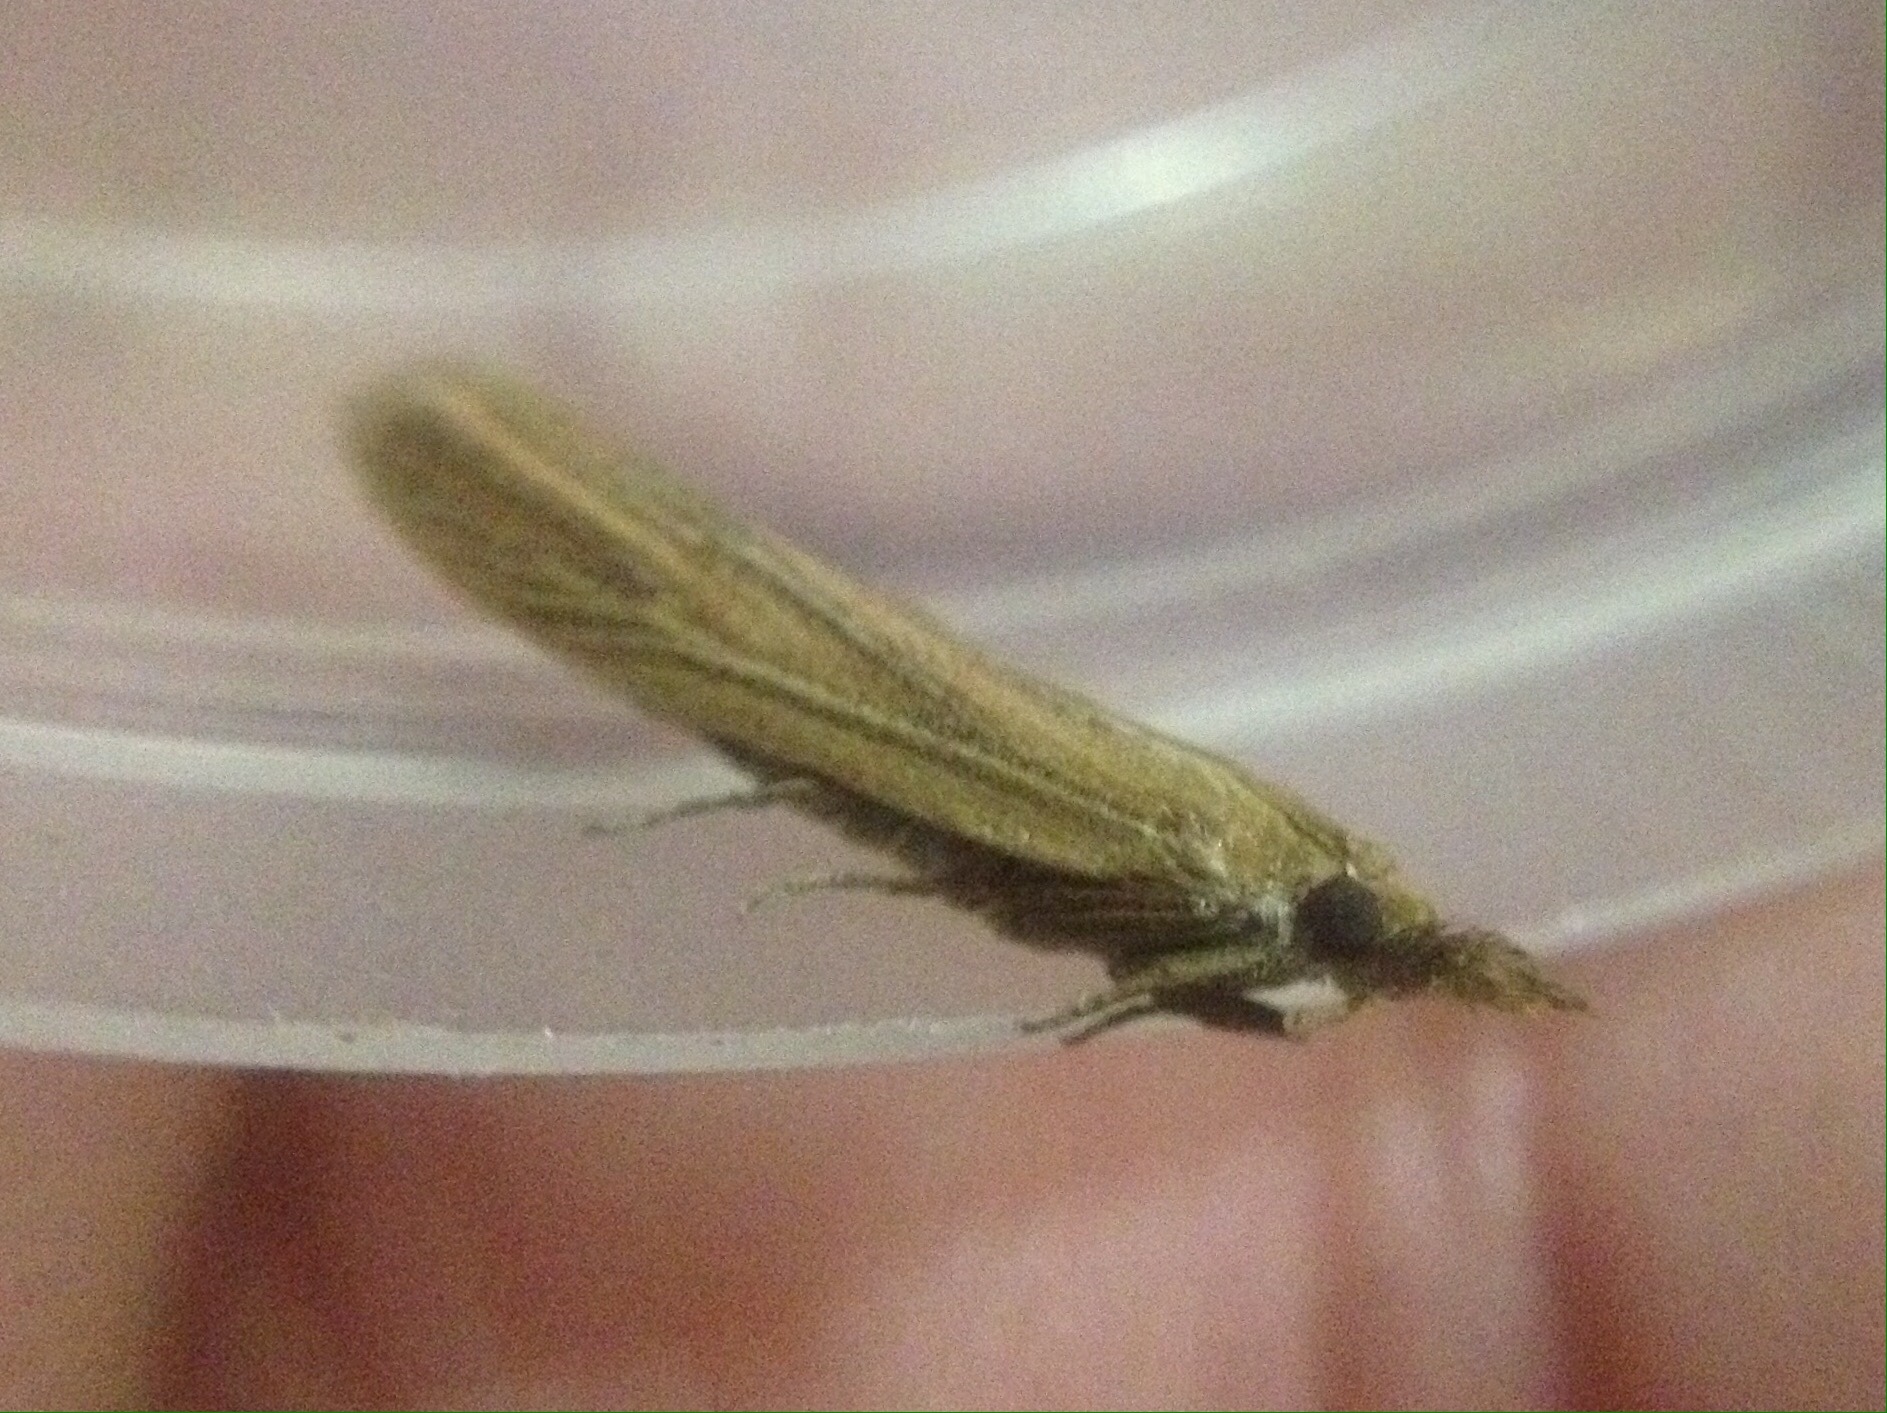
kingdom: Animalia
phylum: Arthropoda
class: Insecta
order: Lepidoptera
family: Pyralidae
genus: Anerastia
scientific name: Anerastia lotella
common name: Sandhill knot-horn
